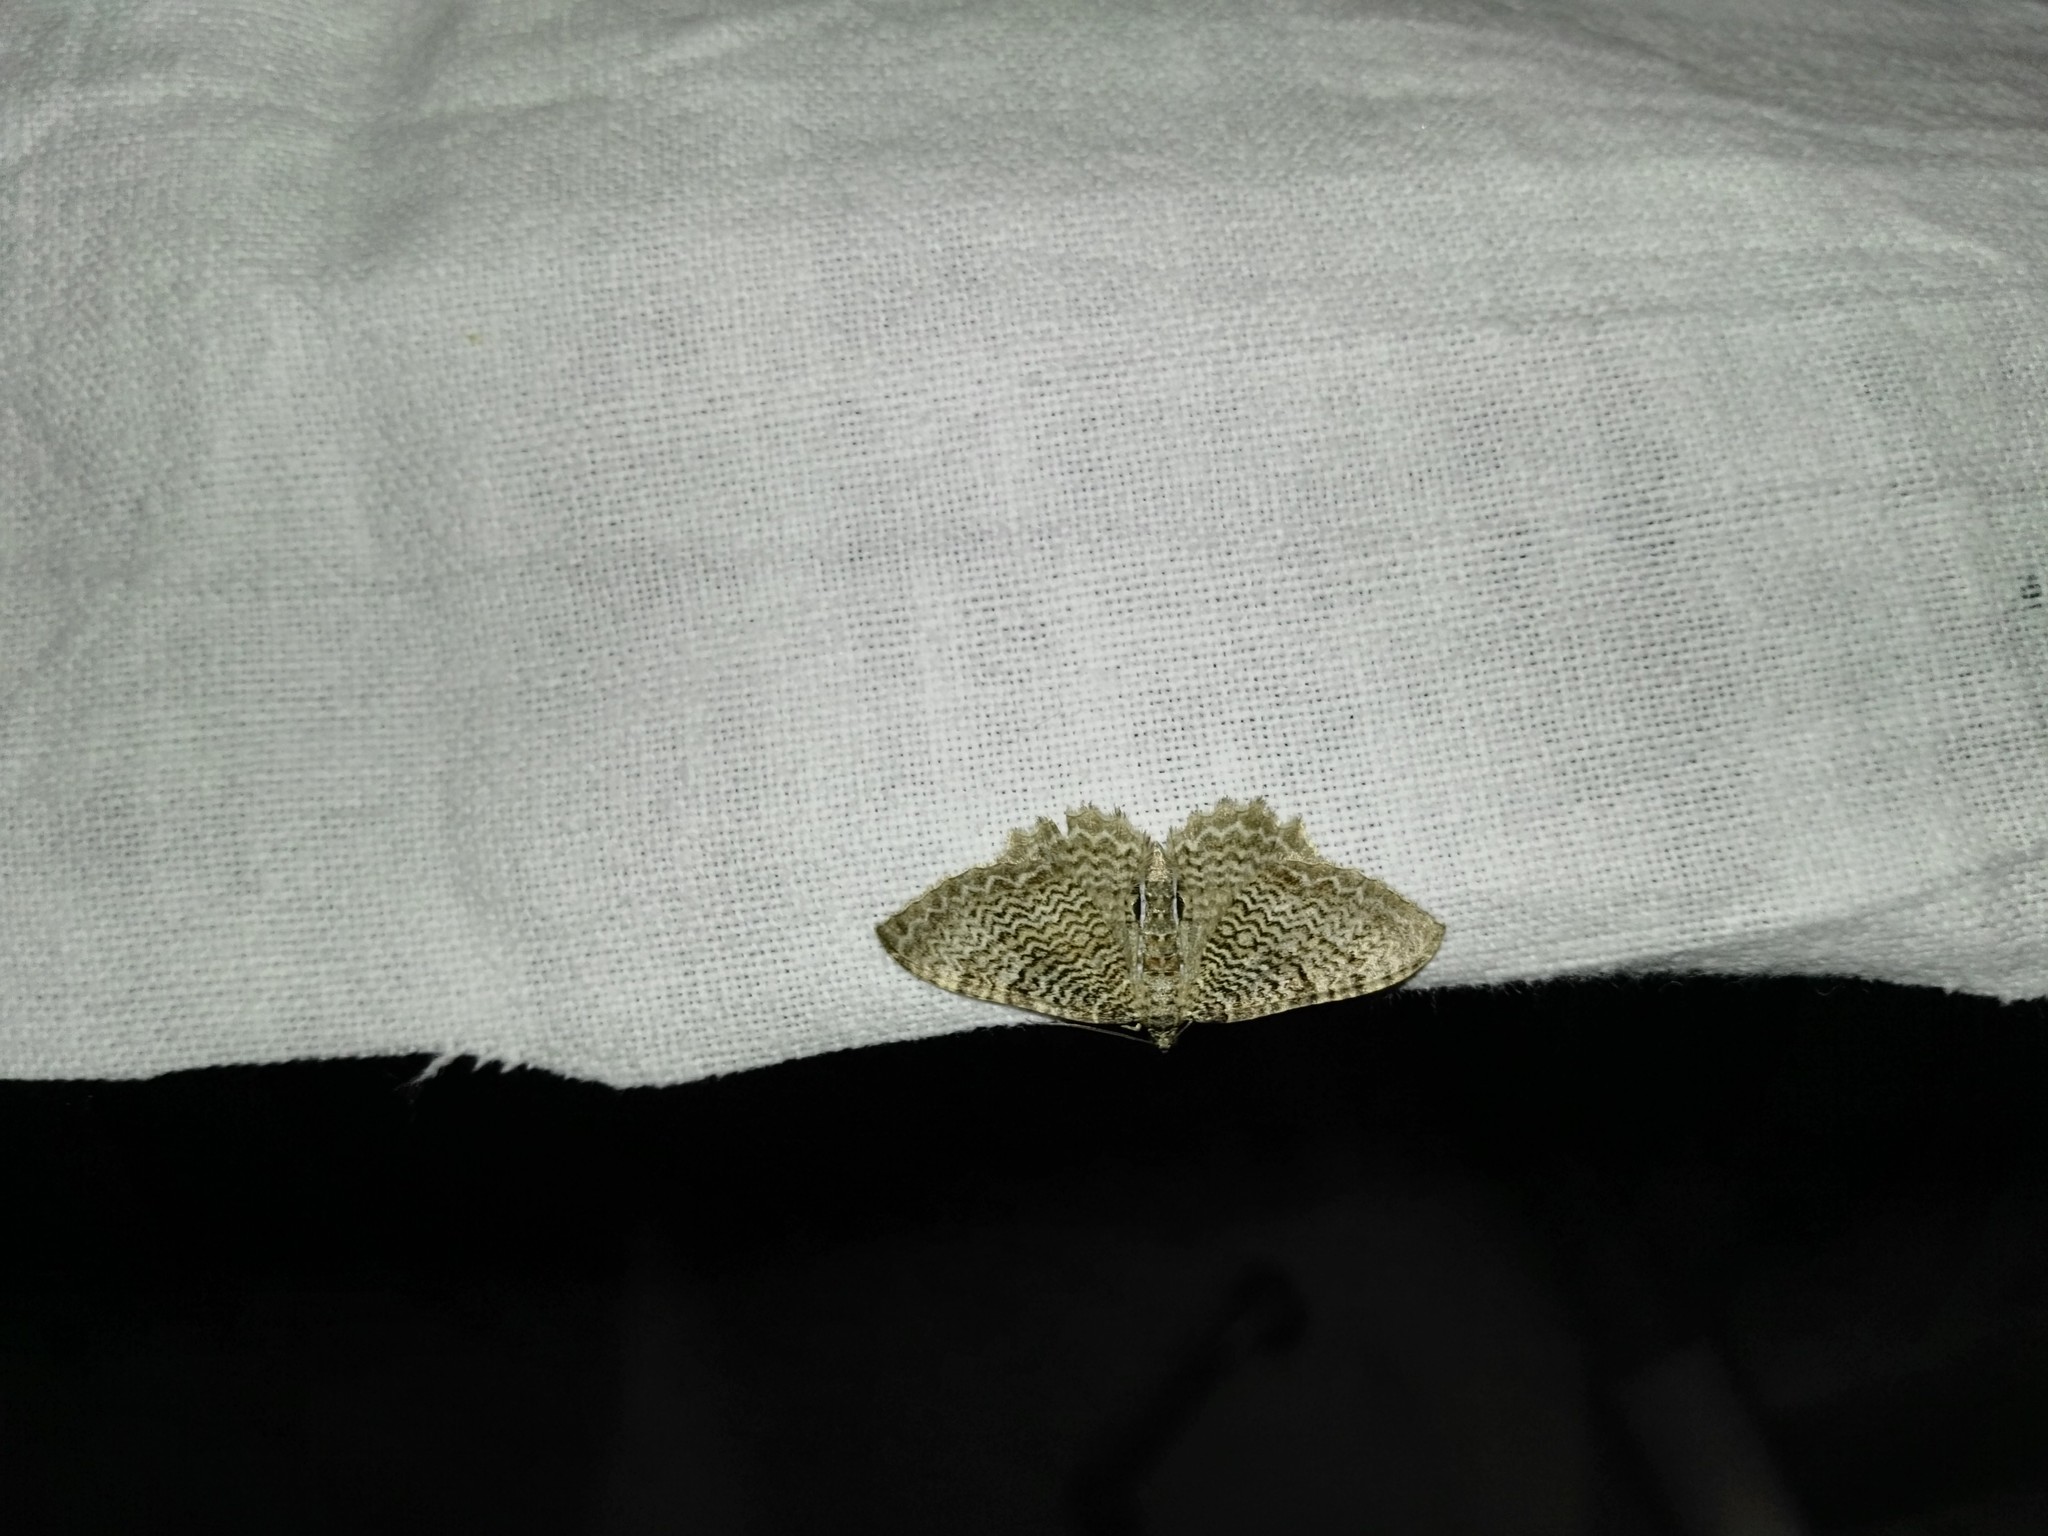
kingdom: Animalia
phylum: Arthropoda
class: Insecta
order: Lepidoptera
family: Geometridae
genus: Rheumaptera
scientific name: Rheumaptera undulata
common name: Scallop shell
